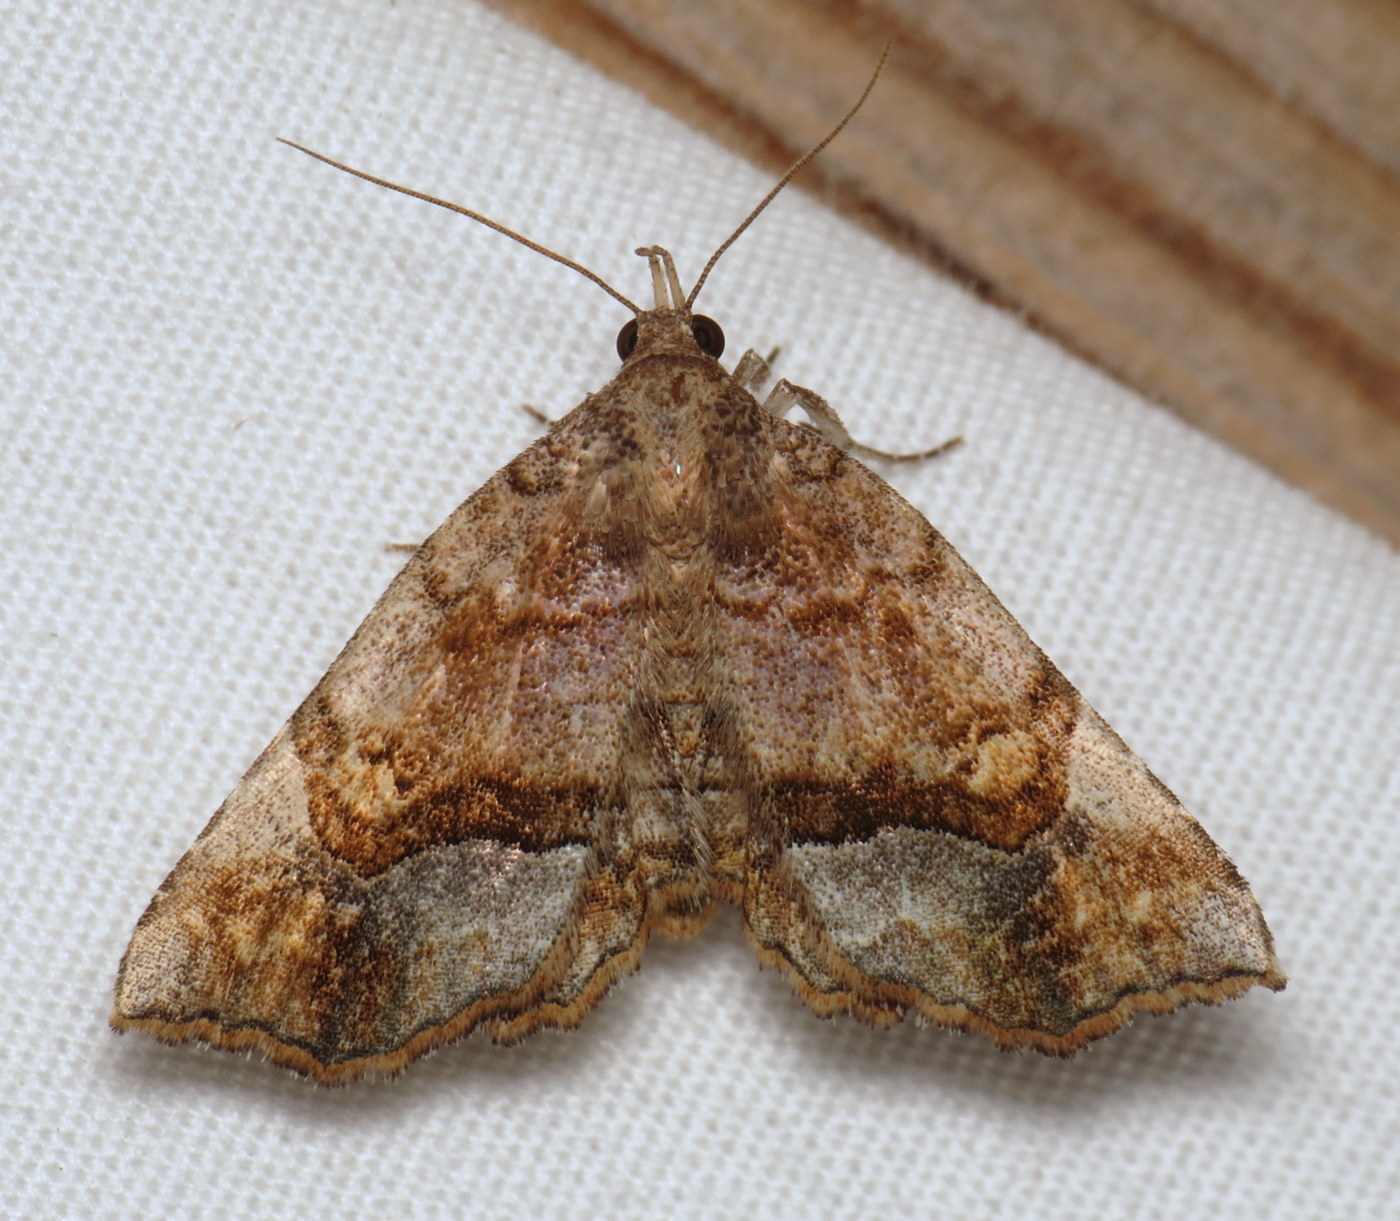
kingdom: Animalia
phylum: Arthropoda
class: Insecta
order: Lepidoptera
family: Erebidae
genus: Pangrapta
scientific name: Pangrapta decoralis
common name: Decorated owlet
